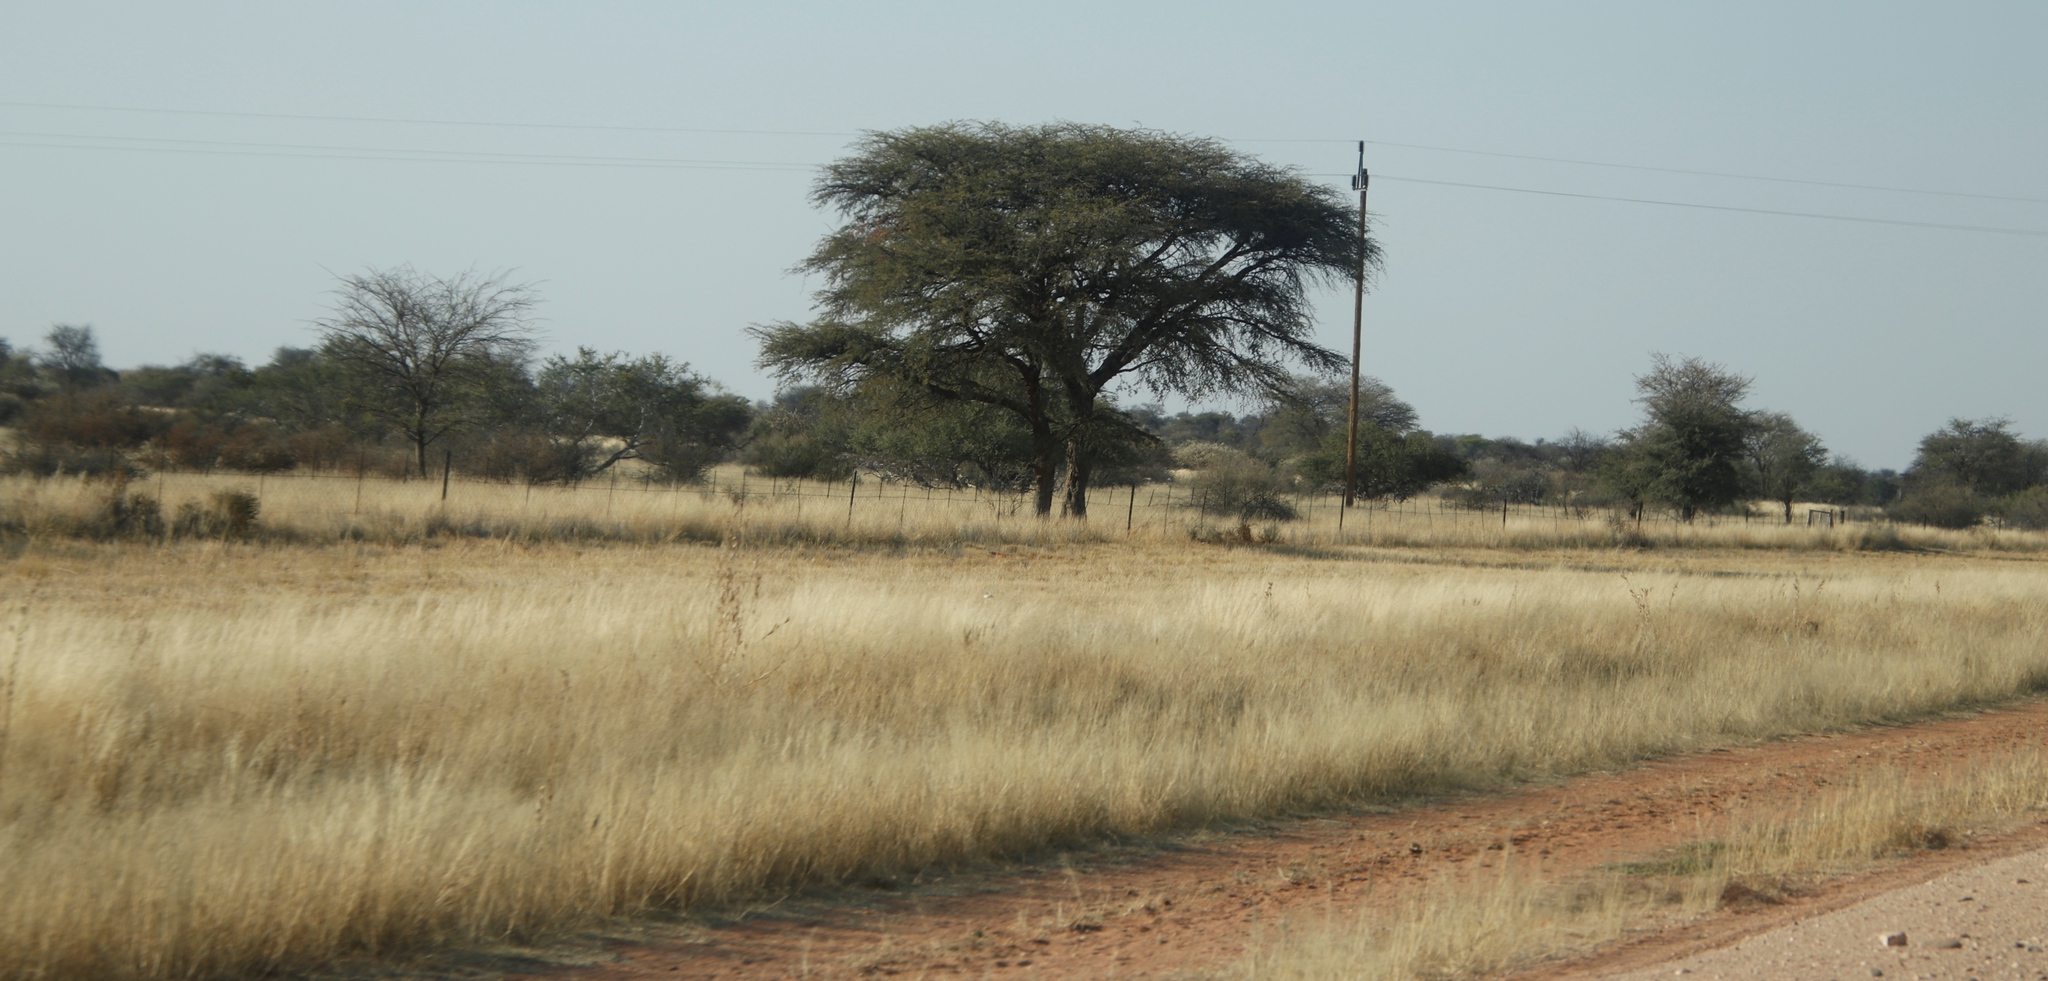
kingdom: Plantae
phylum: Tracheophyta
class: Magnoliopsida
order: Fabales
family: Fabaceae
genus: Vachellia
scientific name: Vachellia erioloba
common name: Camel thorn
